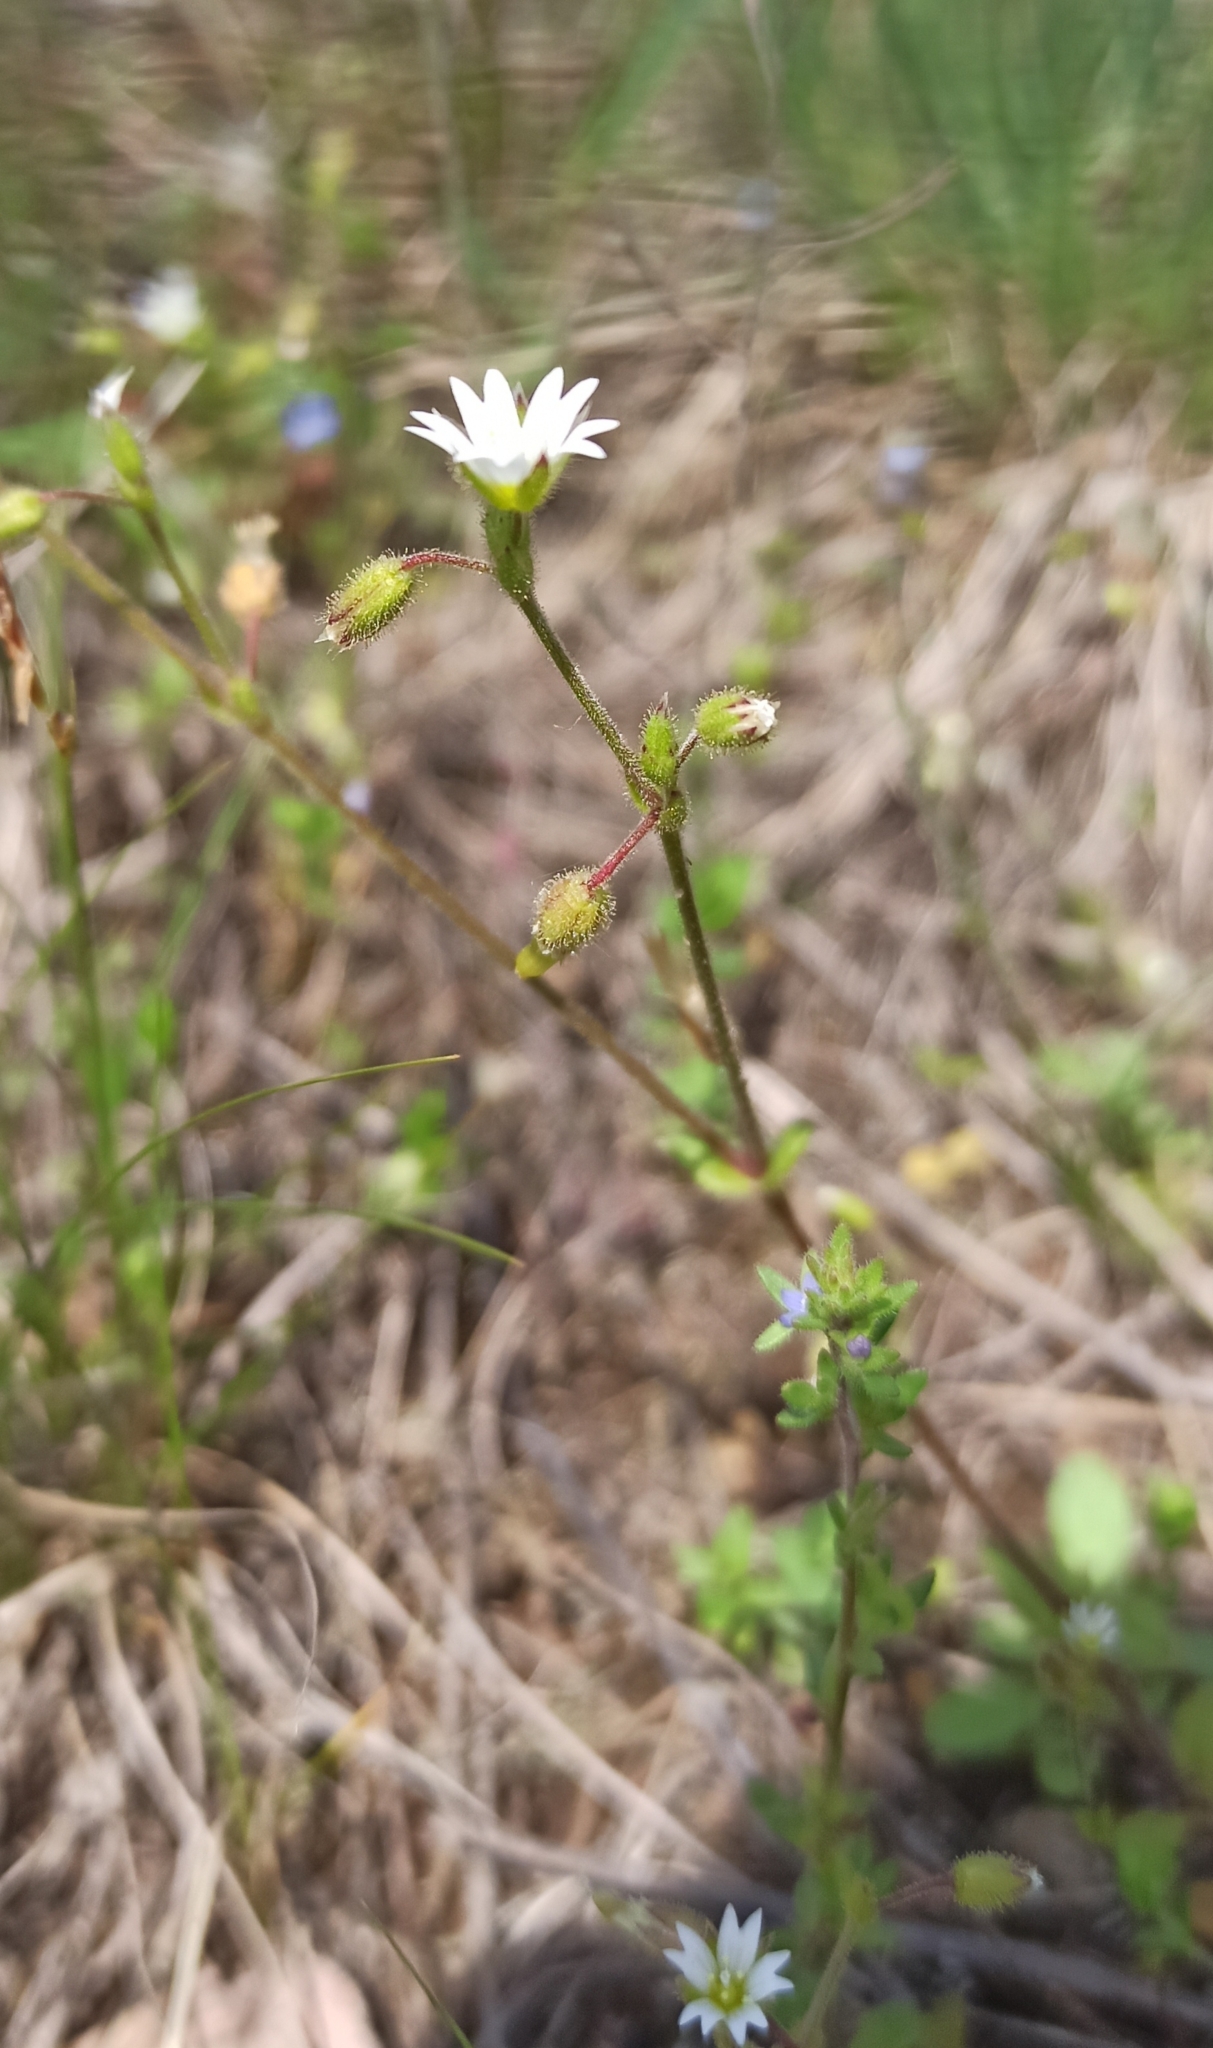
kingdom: Plantae
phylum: Tracheophyta
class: Magnoliopsida
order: Caryophyllales
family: Caryophyllaceae
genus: Cerastium
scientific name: Cerastium pumilum
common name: Dwarf mouse-ear
